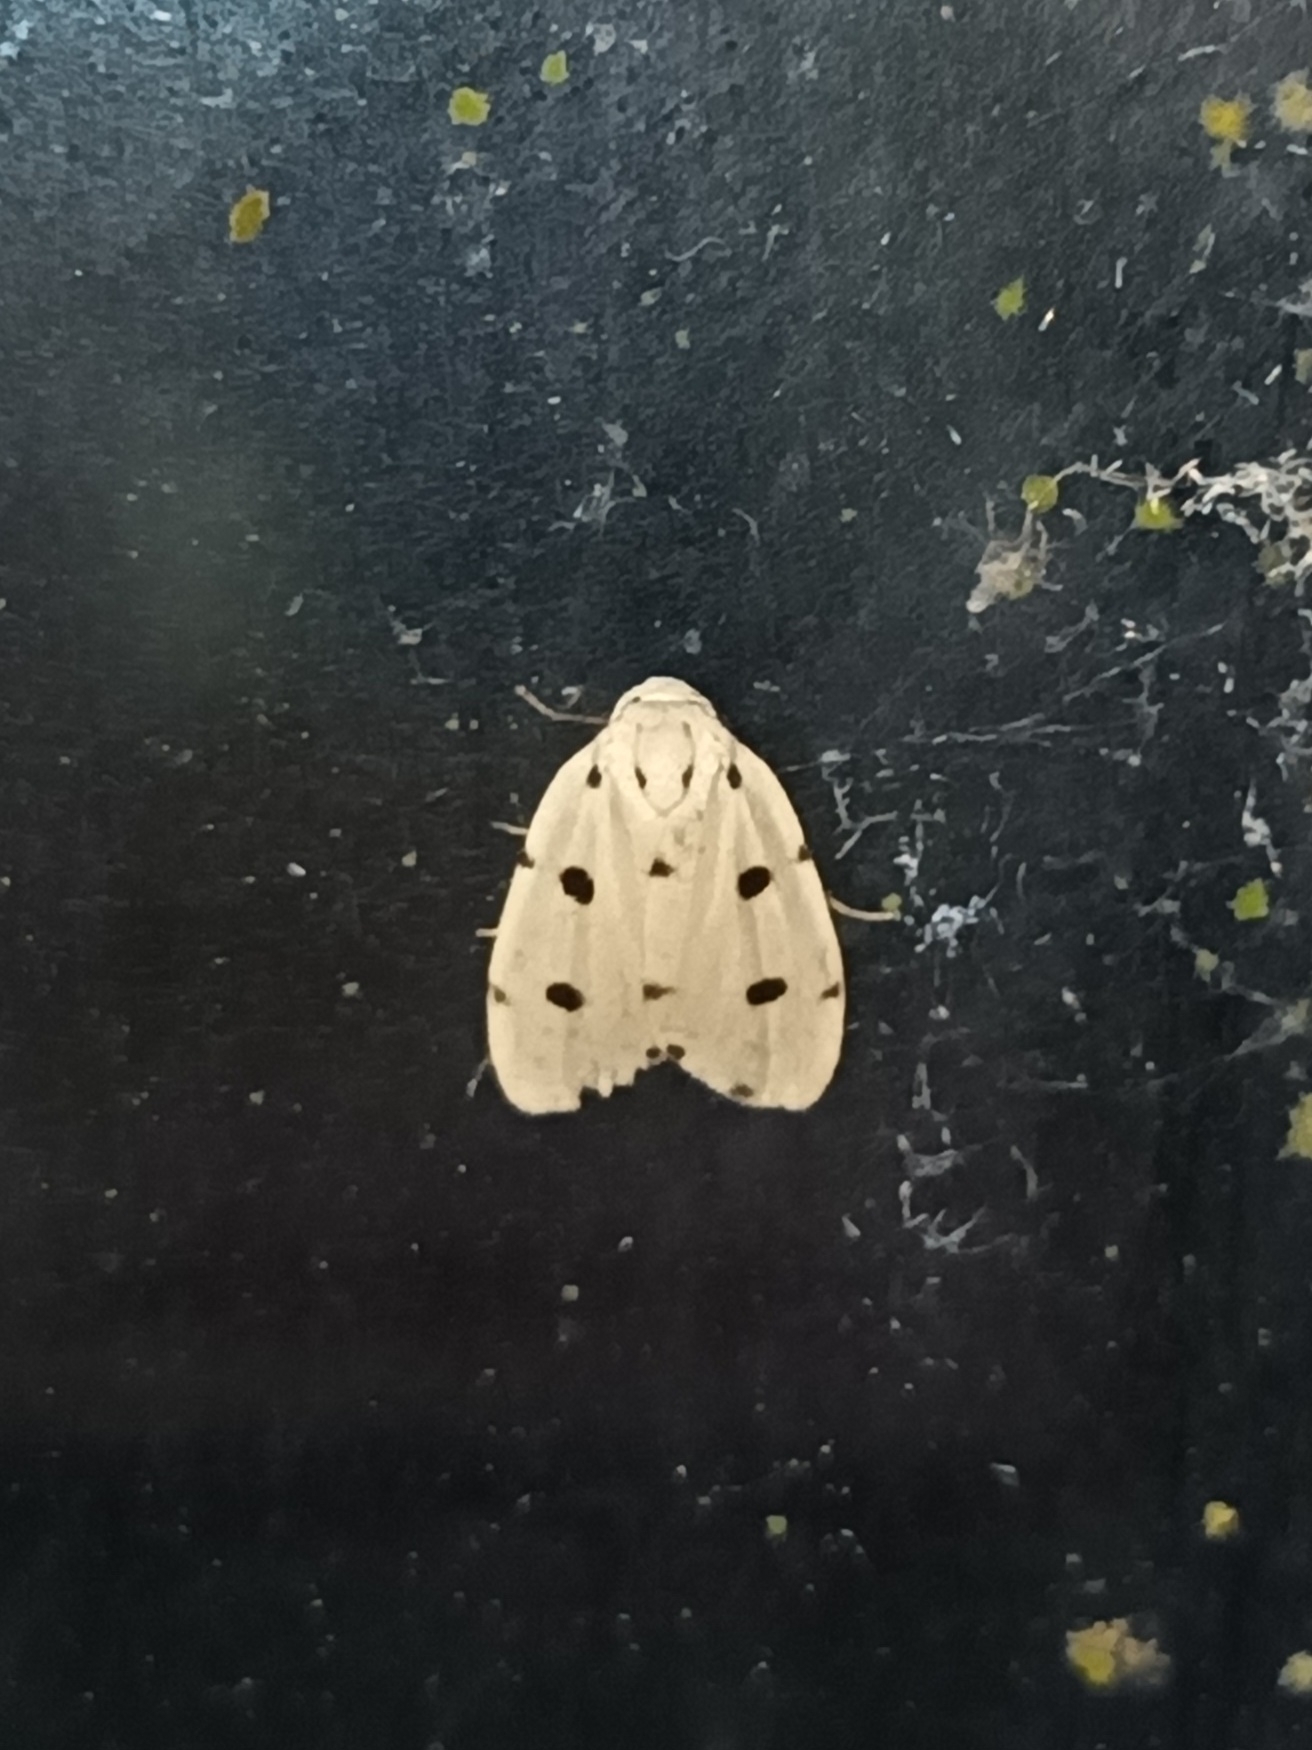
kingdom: Animalia
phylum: Arthropoda
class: Insecta
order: Lepidoptera
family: Erebidae
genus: Siccia
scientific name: Siccia spotoptera
